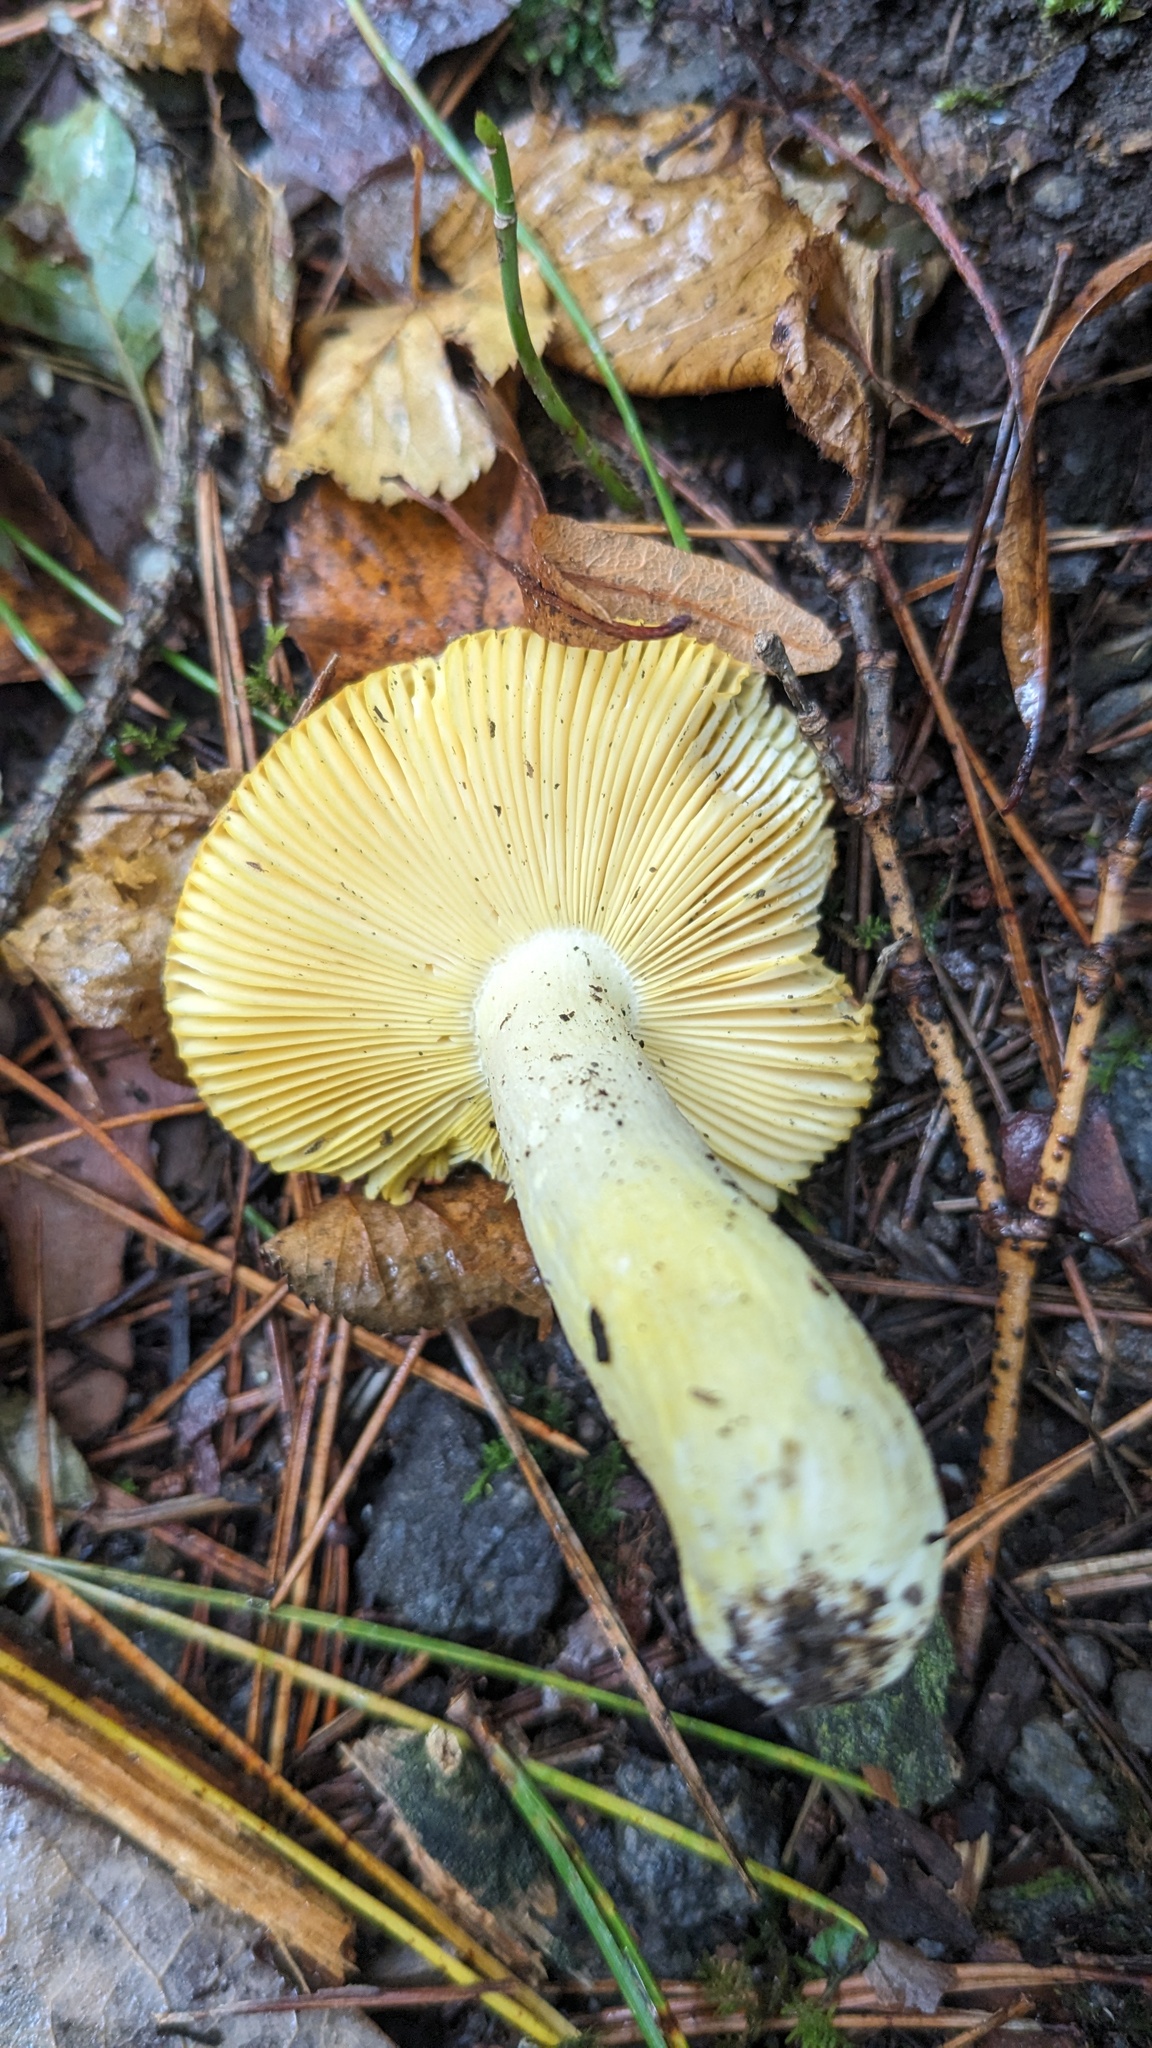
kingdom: Fungi
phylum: Basidiomycota
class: Agaricomycetes
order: Russulales
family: Russulaceae
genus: Russula
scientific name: Russula aurea
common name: Gilded brittlegill
